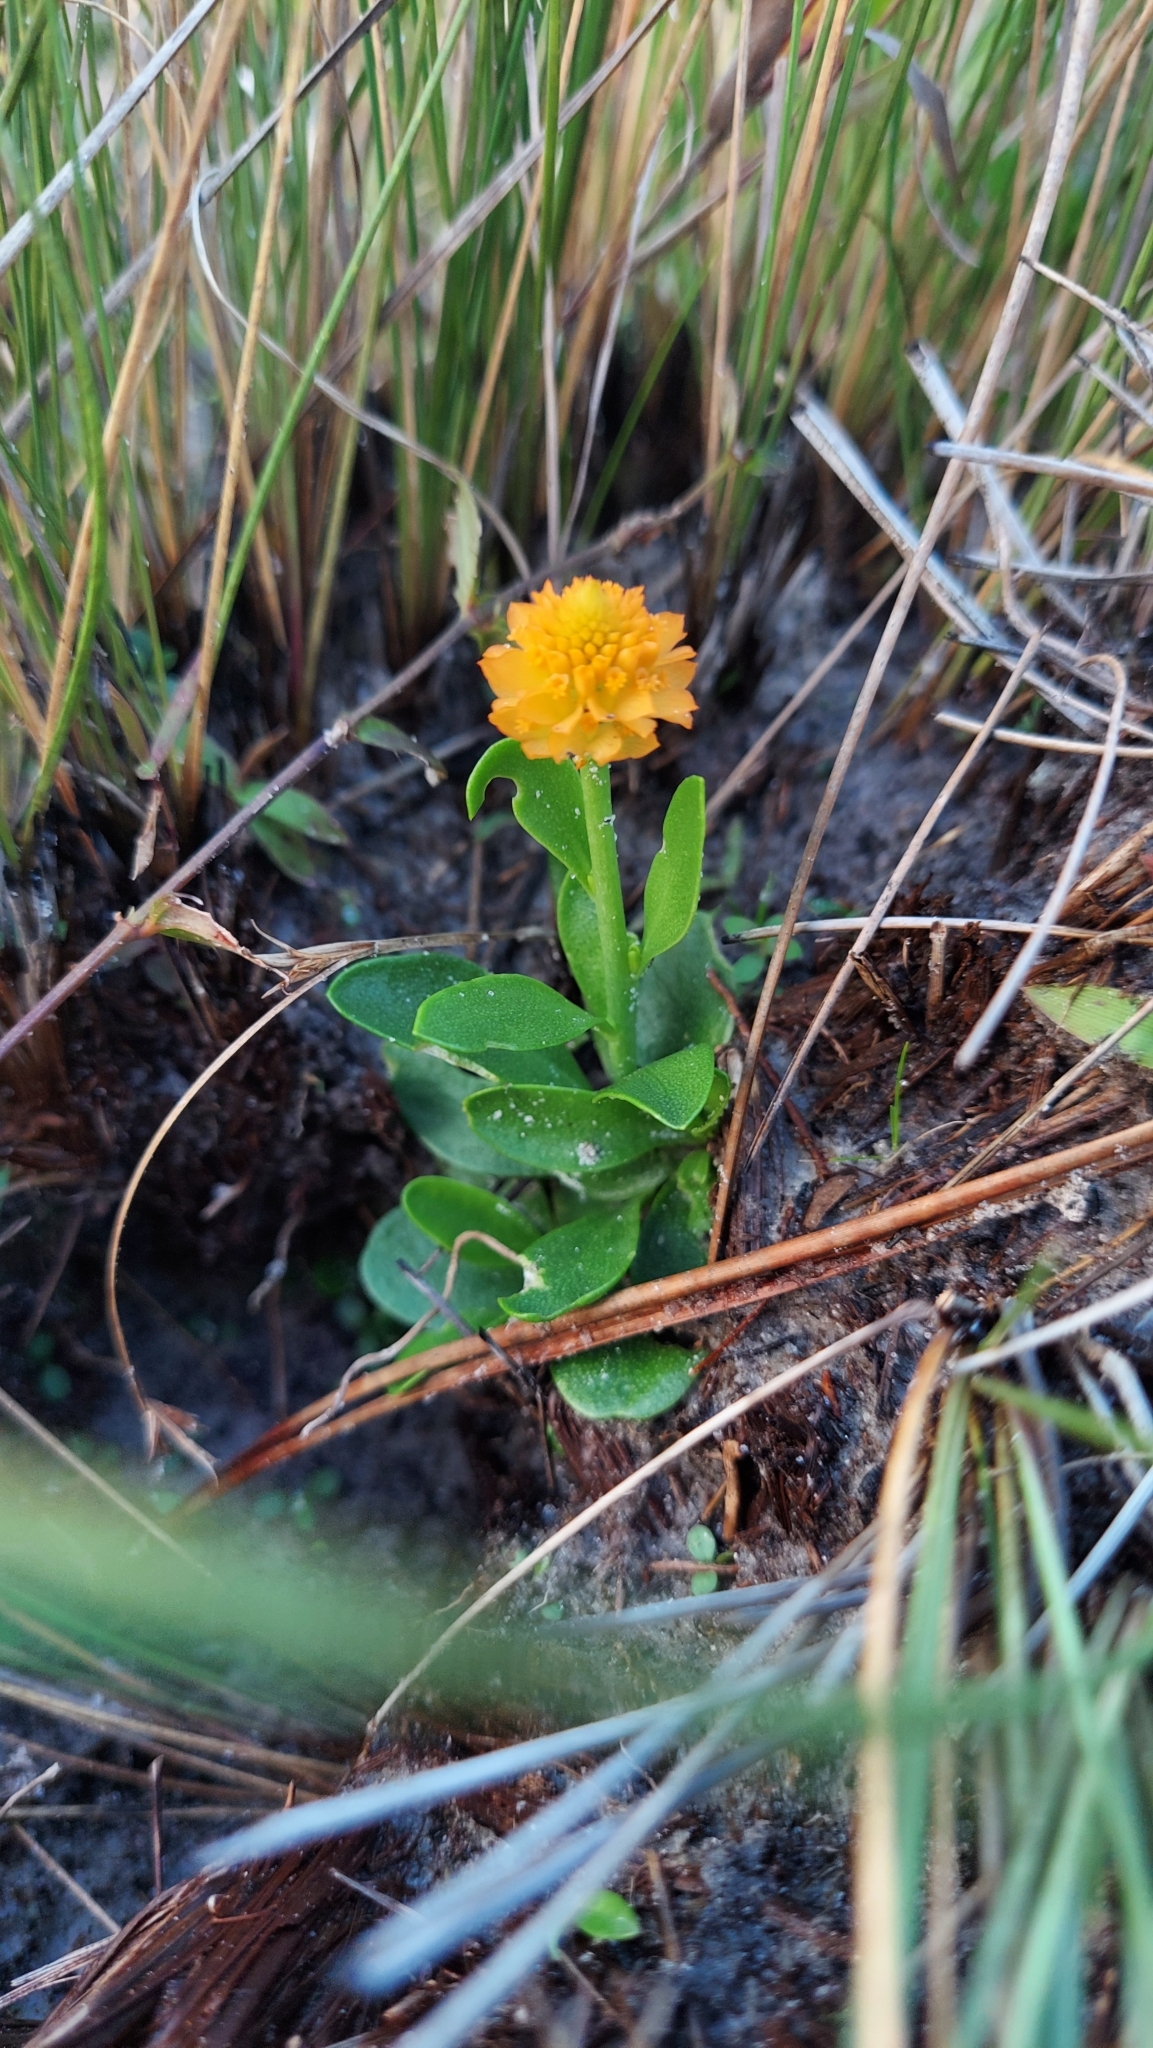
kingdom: Plantae
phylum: Tracheophyta
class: Magnoliopsida
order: Fabales
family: Polygalaceae
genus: Polygala
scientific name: Polygala lutea
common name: Orange milkwort
